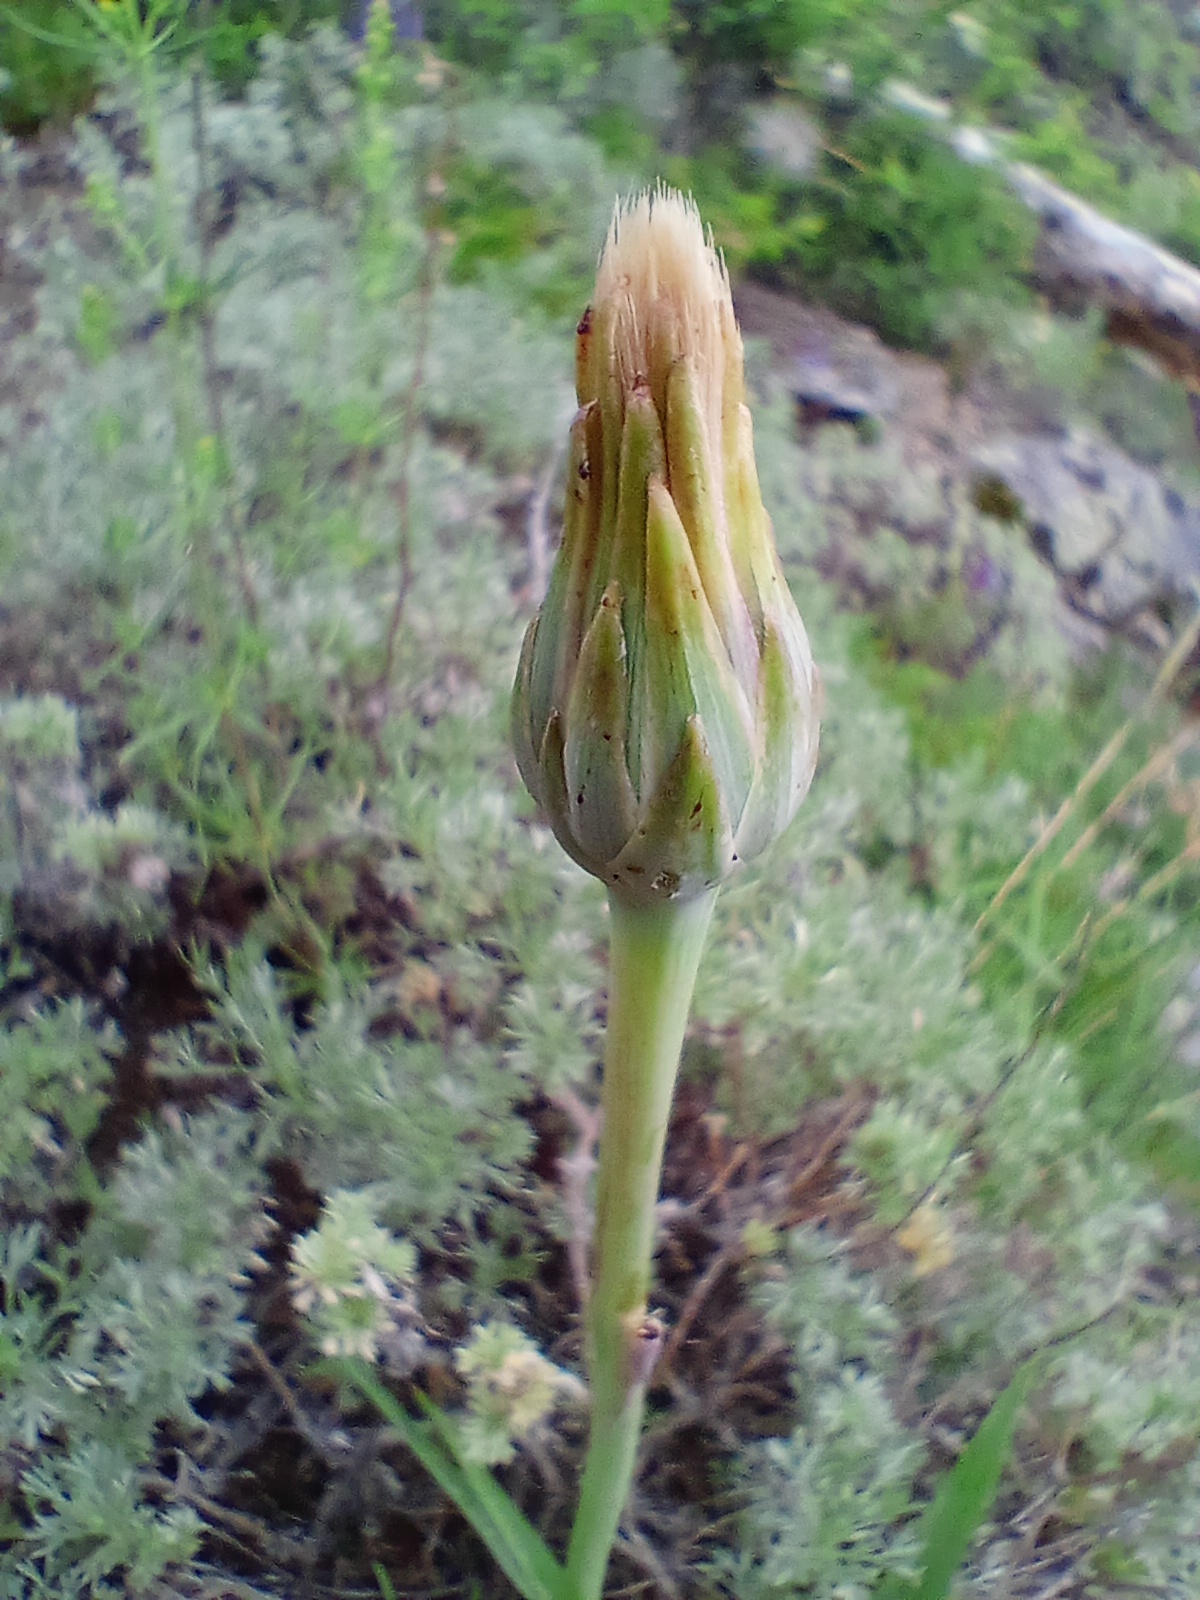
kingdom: Plantae
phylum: Tracheophyta
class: Magnoliopsida
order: Asterales
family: Asteraceae
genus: Takhtajaniantha
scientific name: Takhtajaniantha austriaca
